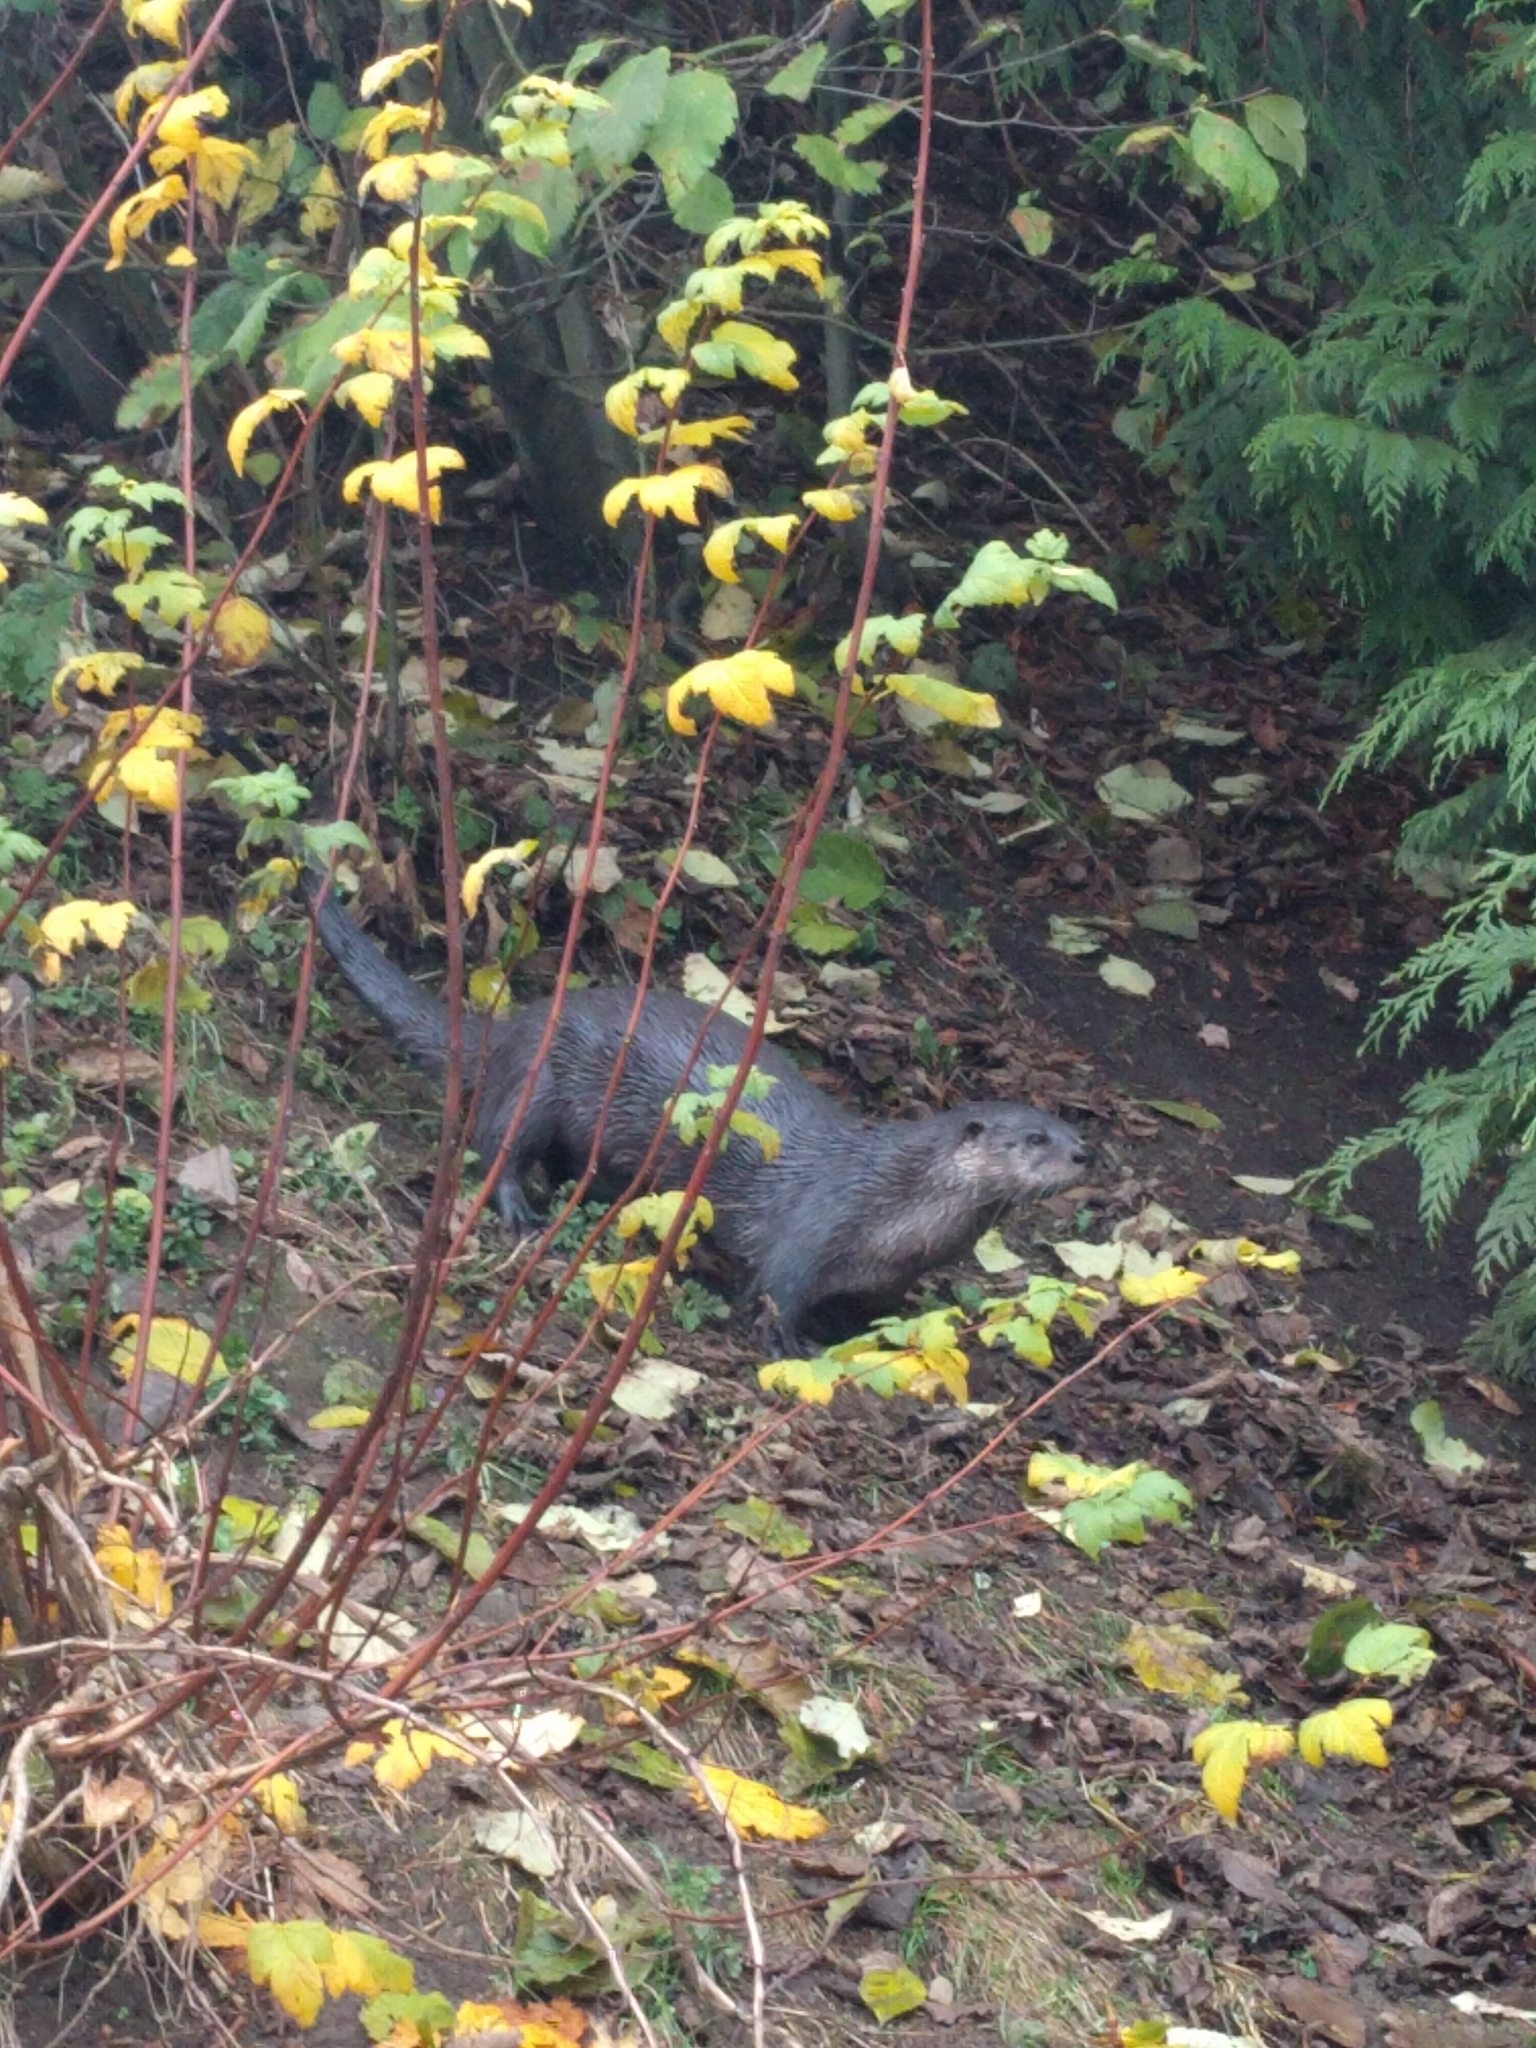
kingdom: Animalia
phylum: Chordata
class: Mammalia
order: Carnivora
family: Mustelidae
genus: Lontra
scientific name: Lontra canadensis
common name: North american river otter
